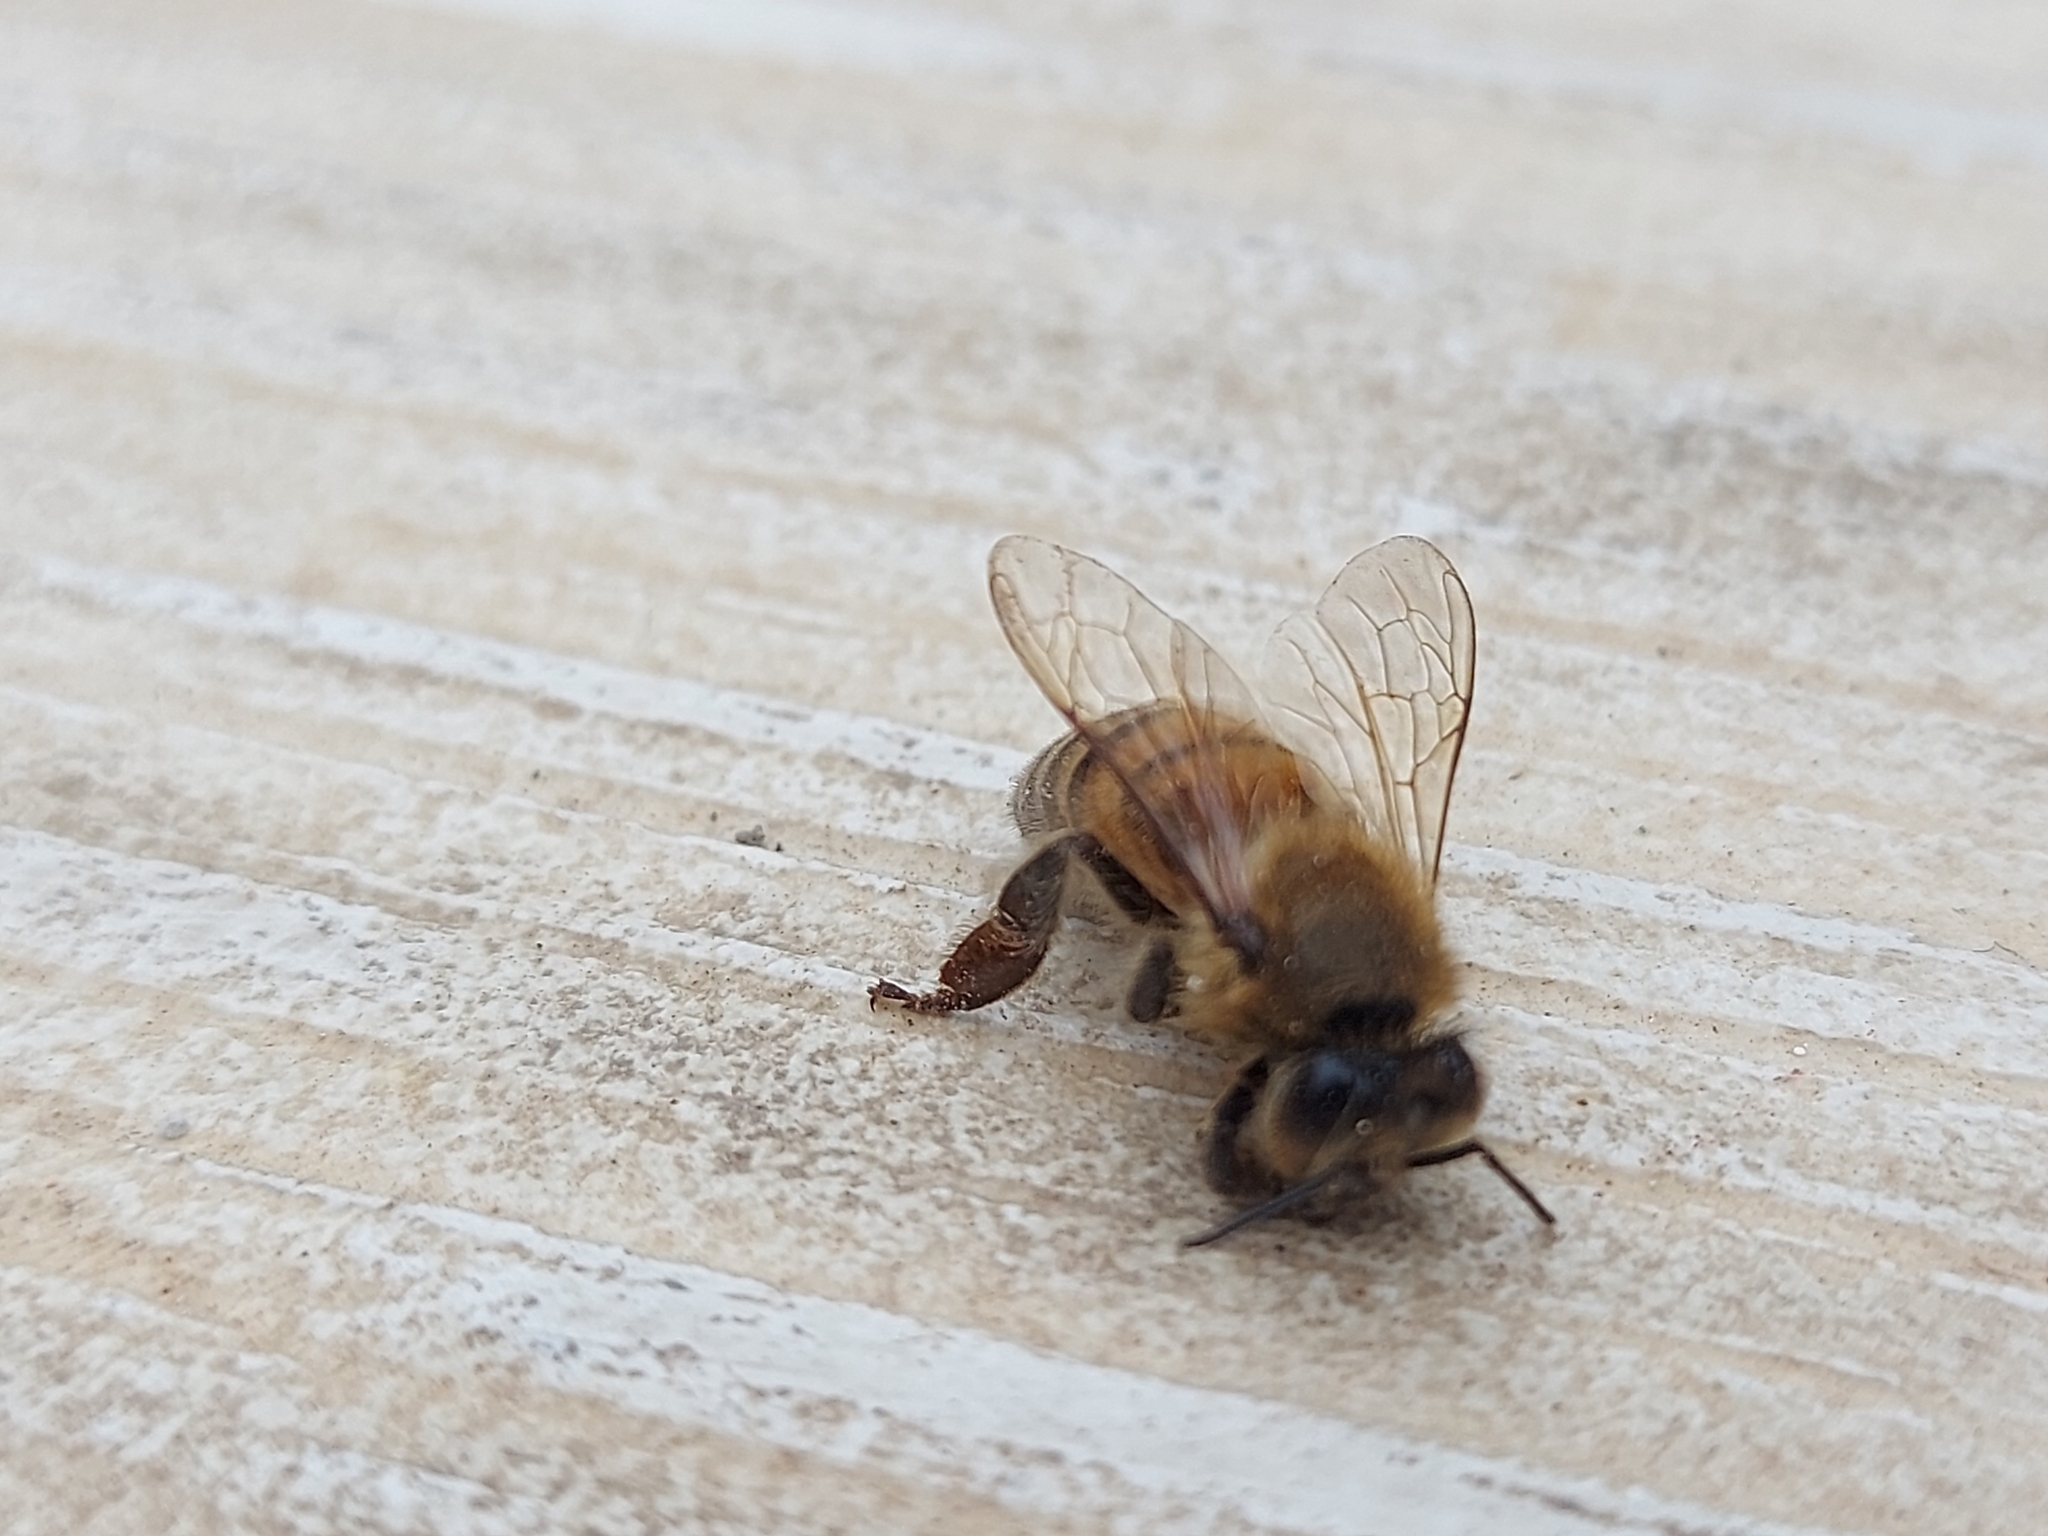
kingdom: Animalia
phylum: Arthropoda
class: Insecta
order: Hymenoptera
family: Apidae
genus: Apis
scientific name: Apis mellifera
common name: Honey bee
